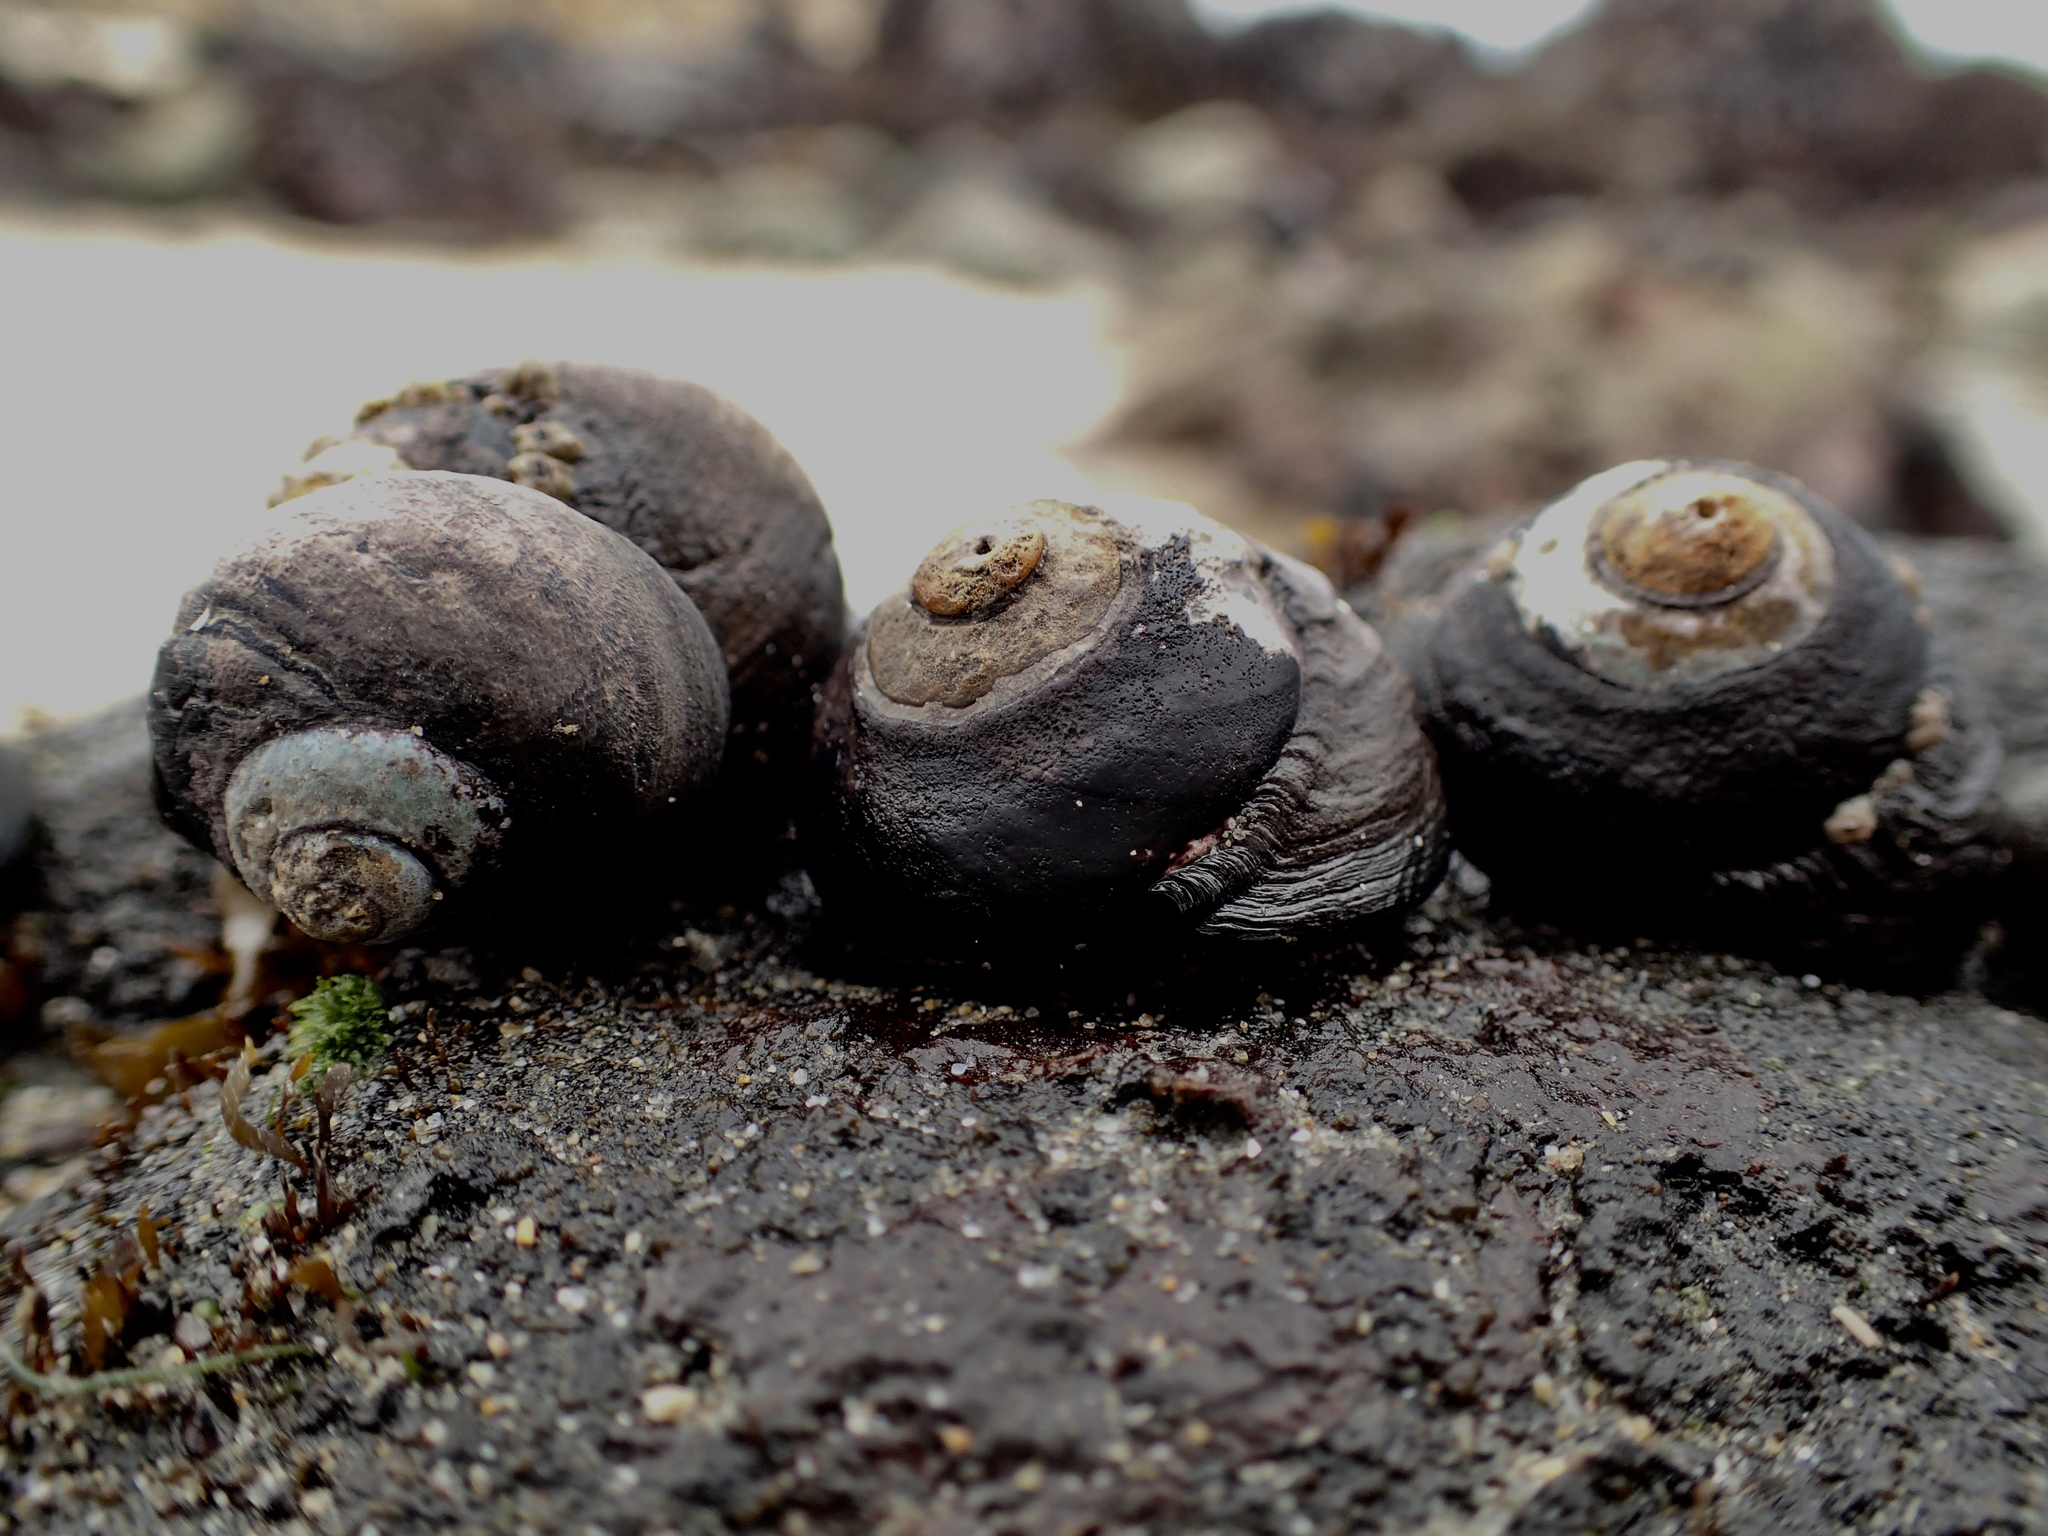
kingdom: Animalia
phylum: Mollusca
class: Gastropoda
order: Trochida
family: Tegulidae
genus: Tegula
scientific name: Tegula funebralis
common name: Black tegula
